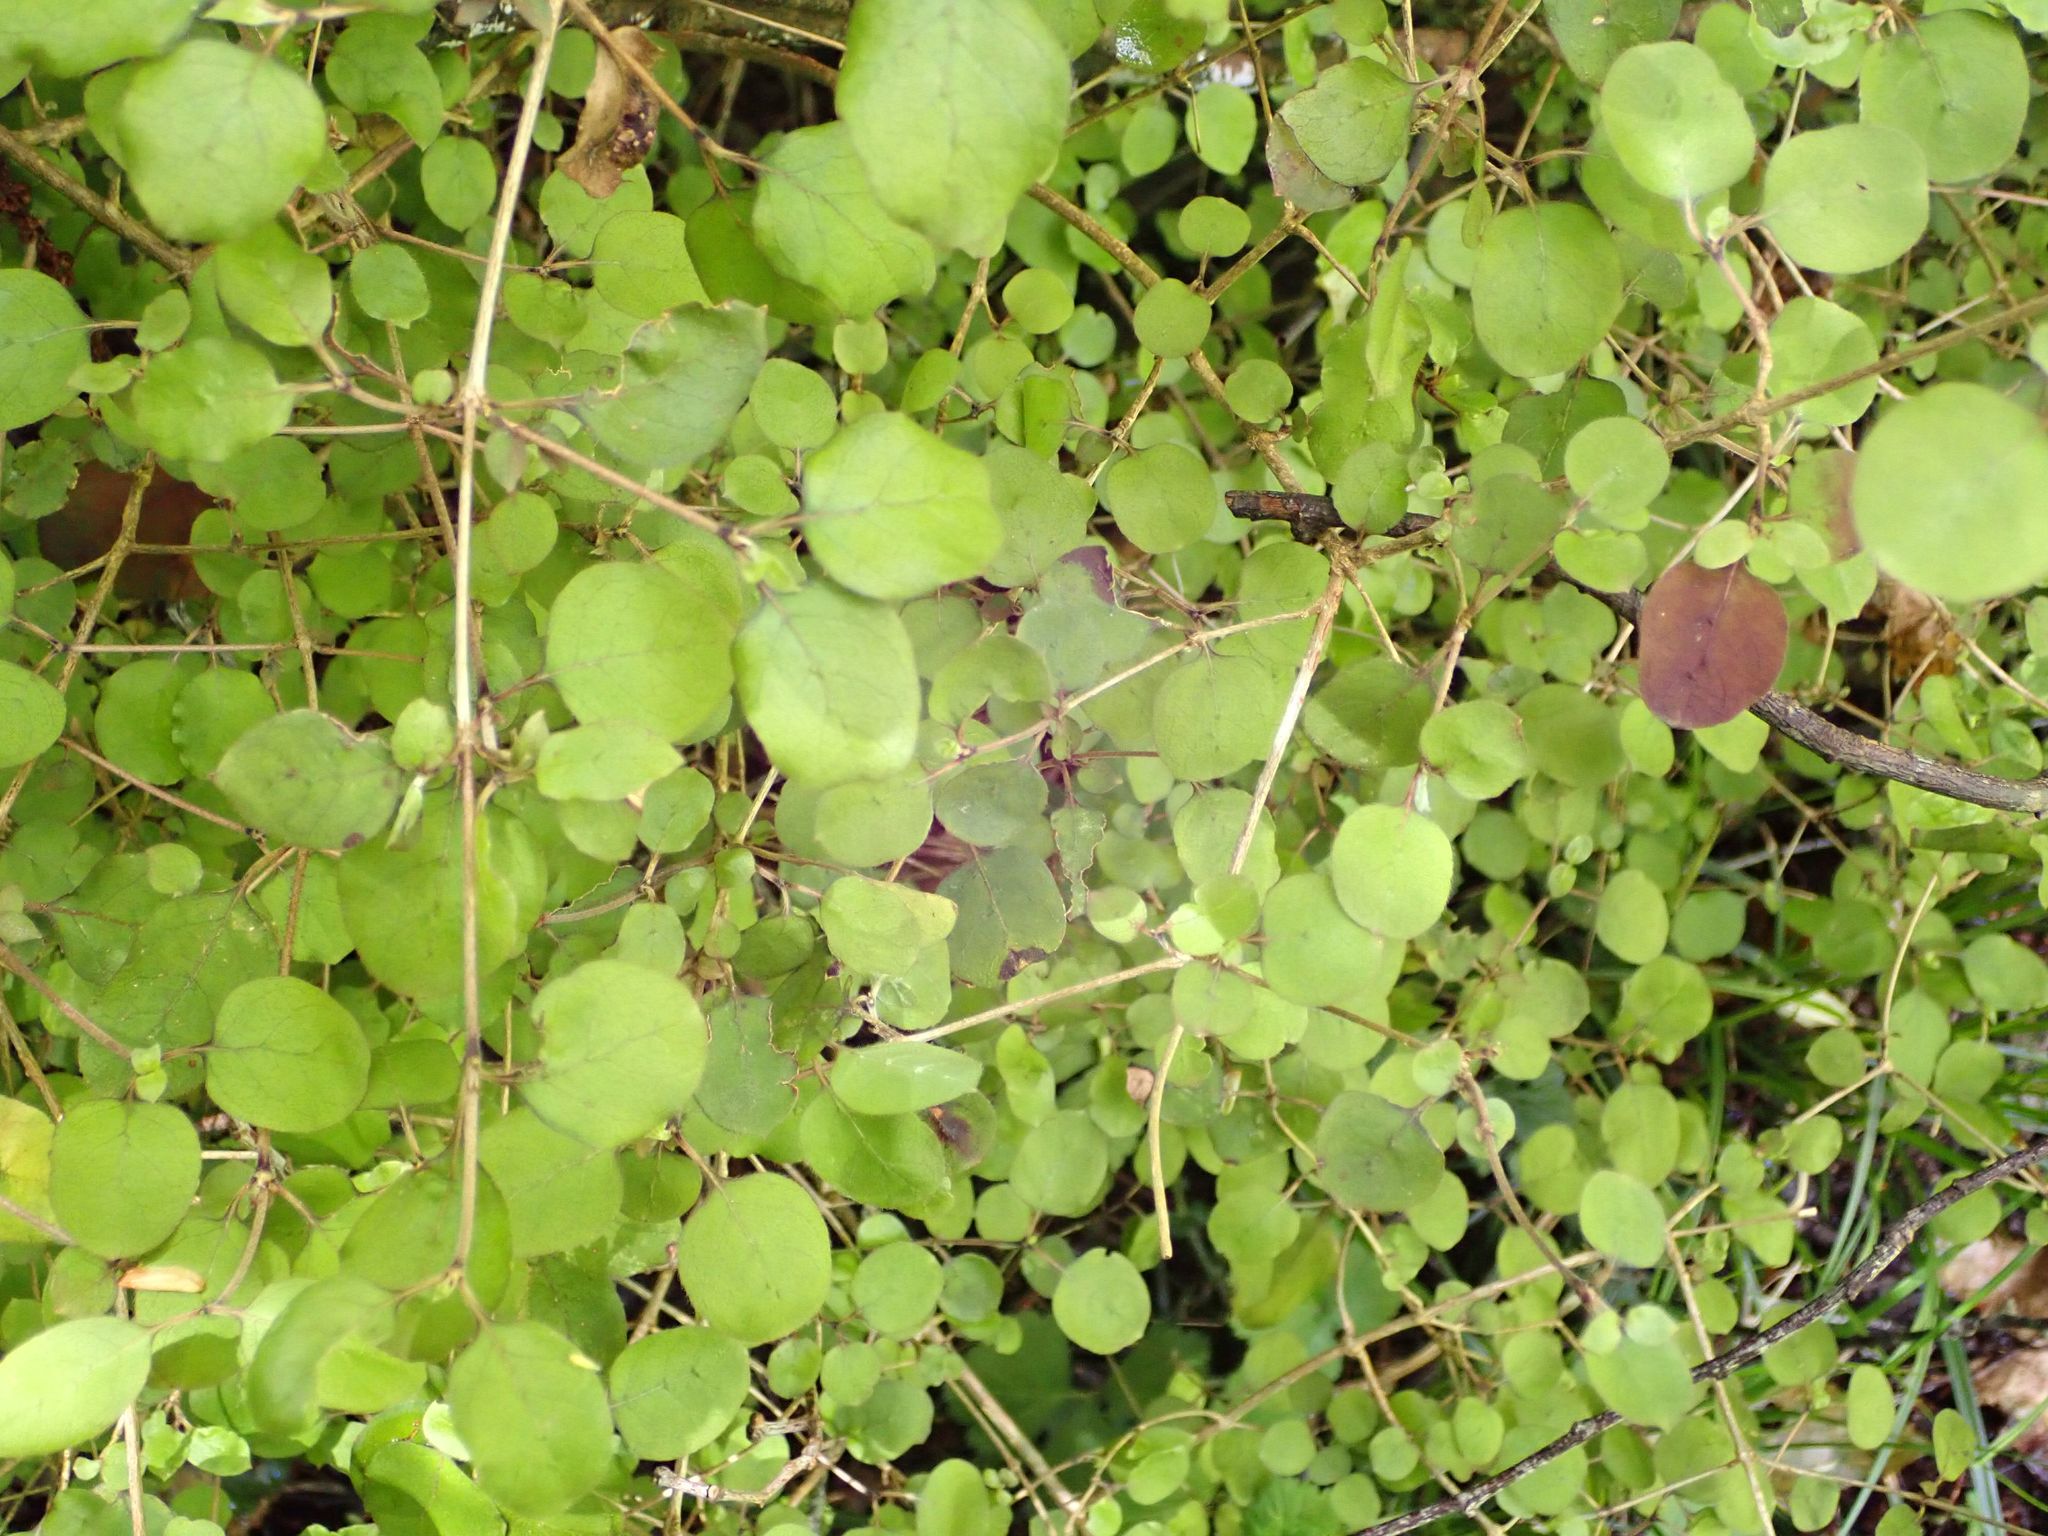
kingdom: Plantae
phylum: Tracheophyta
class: Magnoliopsida
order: Gentianales
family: Rubiaceae
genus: Coprosma
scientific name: Coprosma rotundifolia
